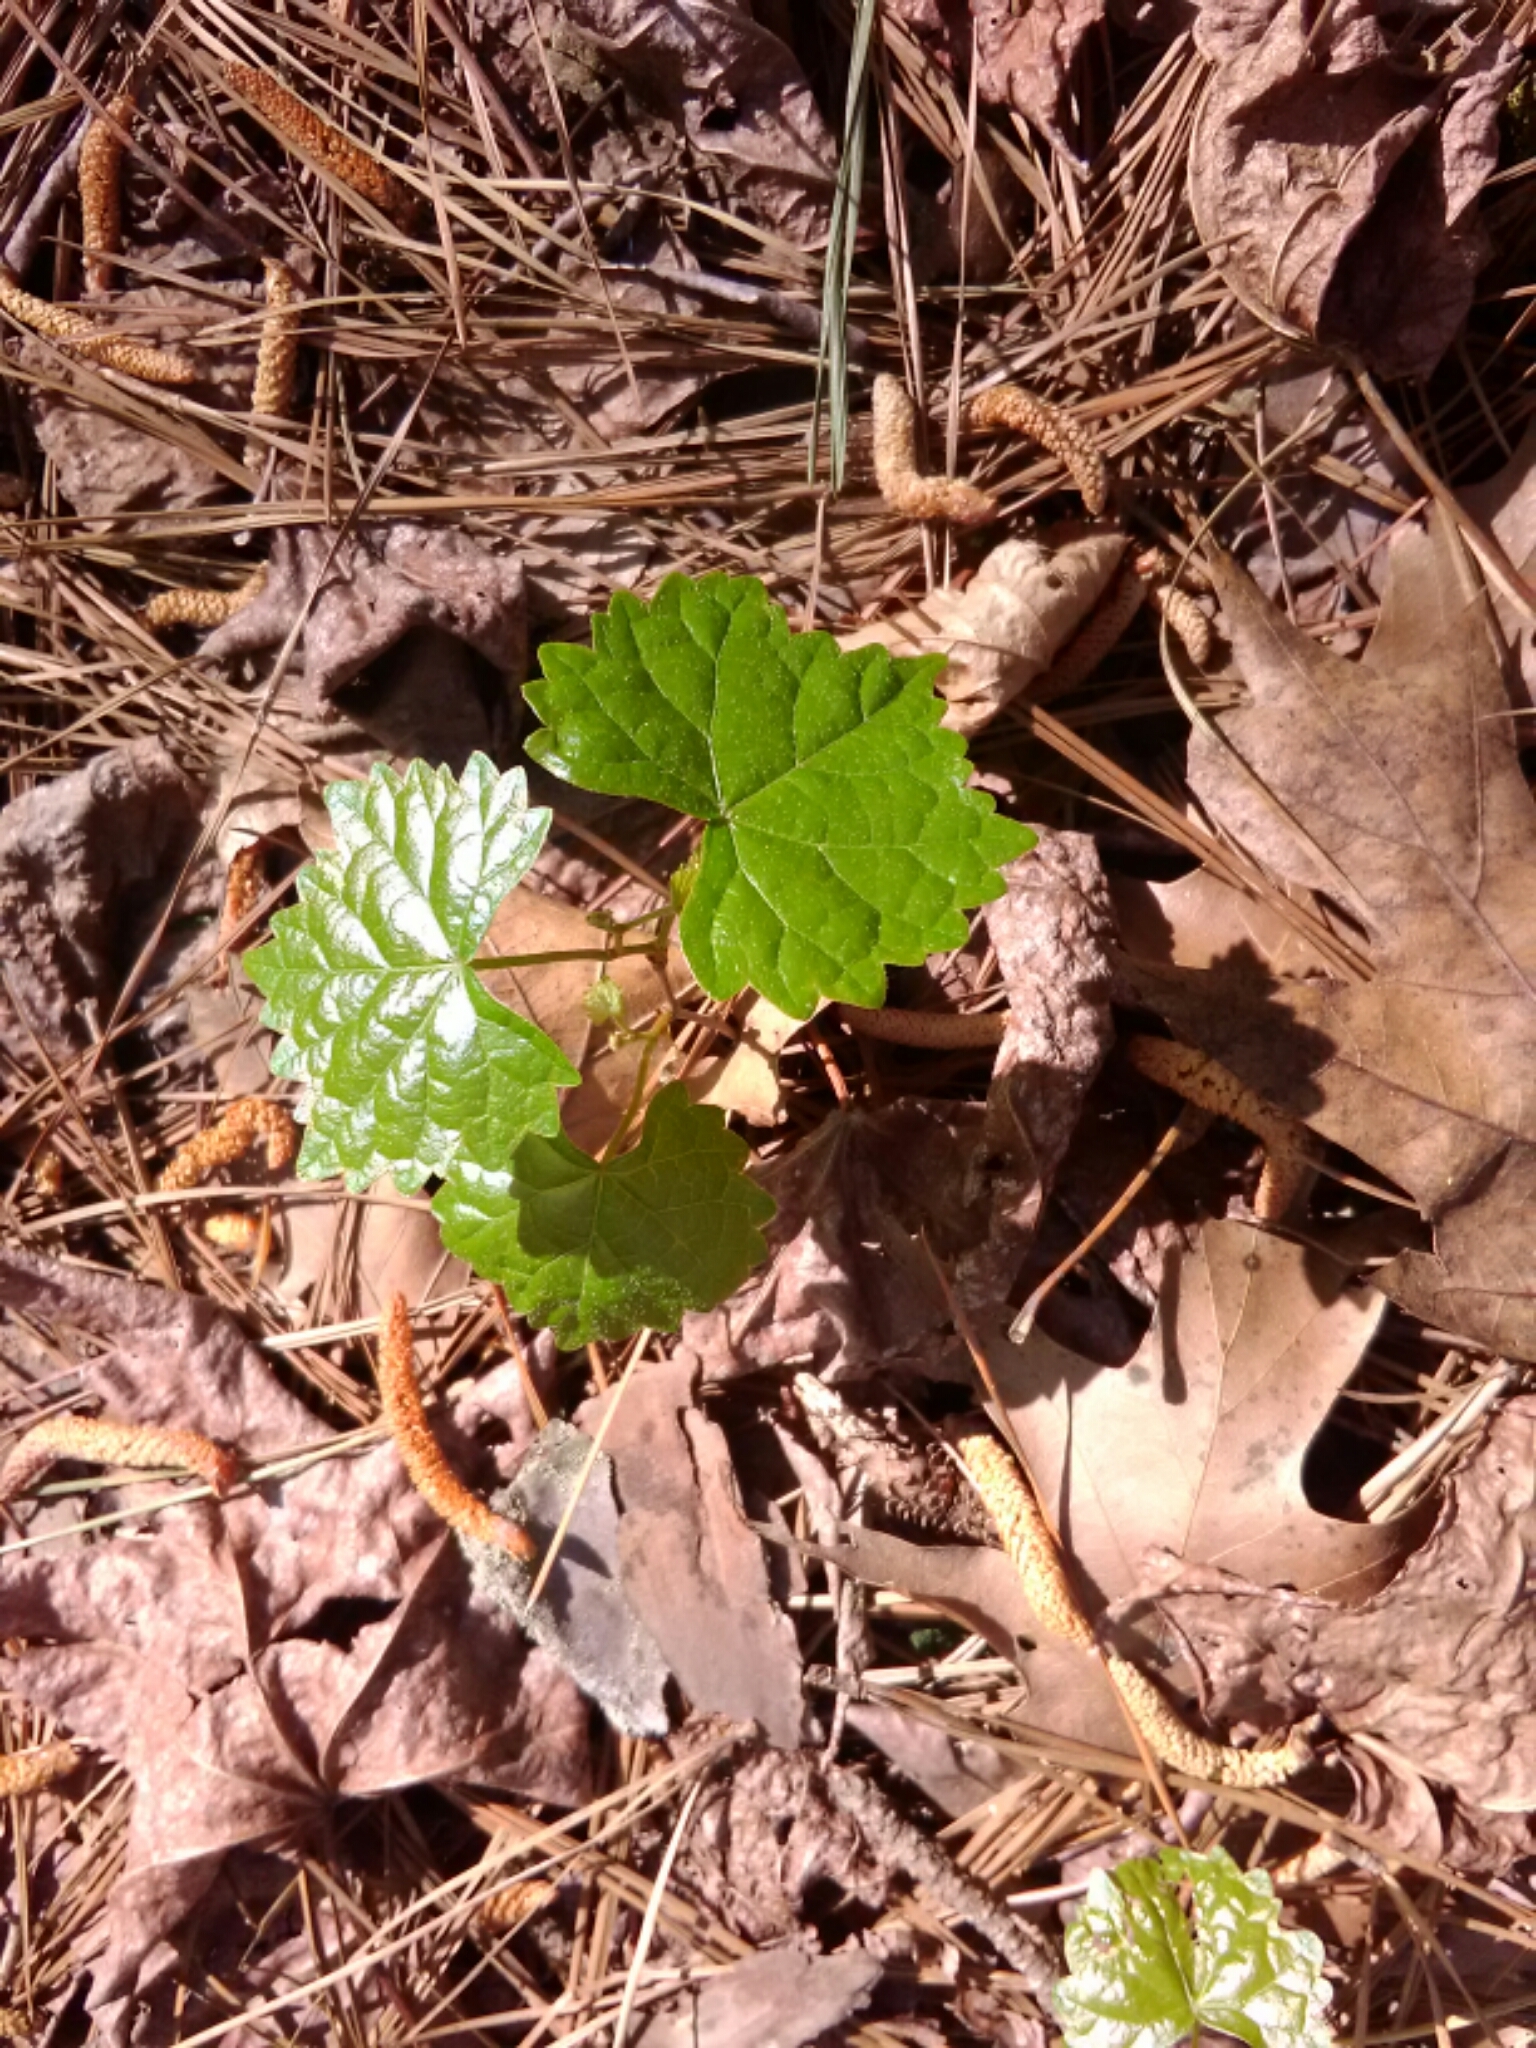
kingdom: Plantae
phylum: Tracheophyta
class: Magnoliopsida
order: Vitales
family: Vitaceae
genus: Vitis
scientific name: Vitis rotundifolia
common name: Muscadine grape
